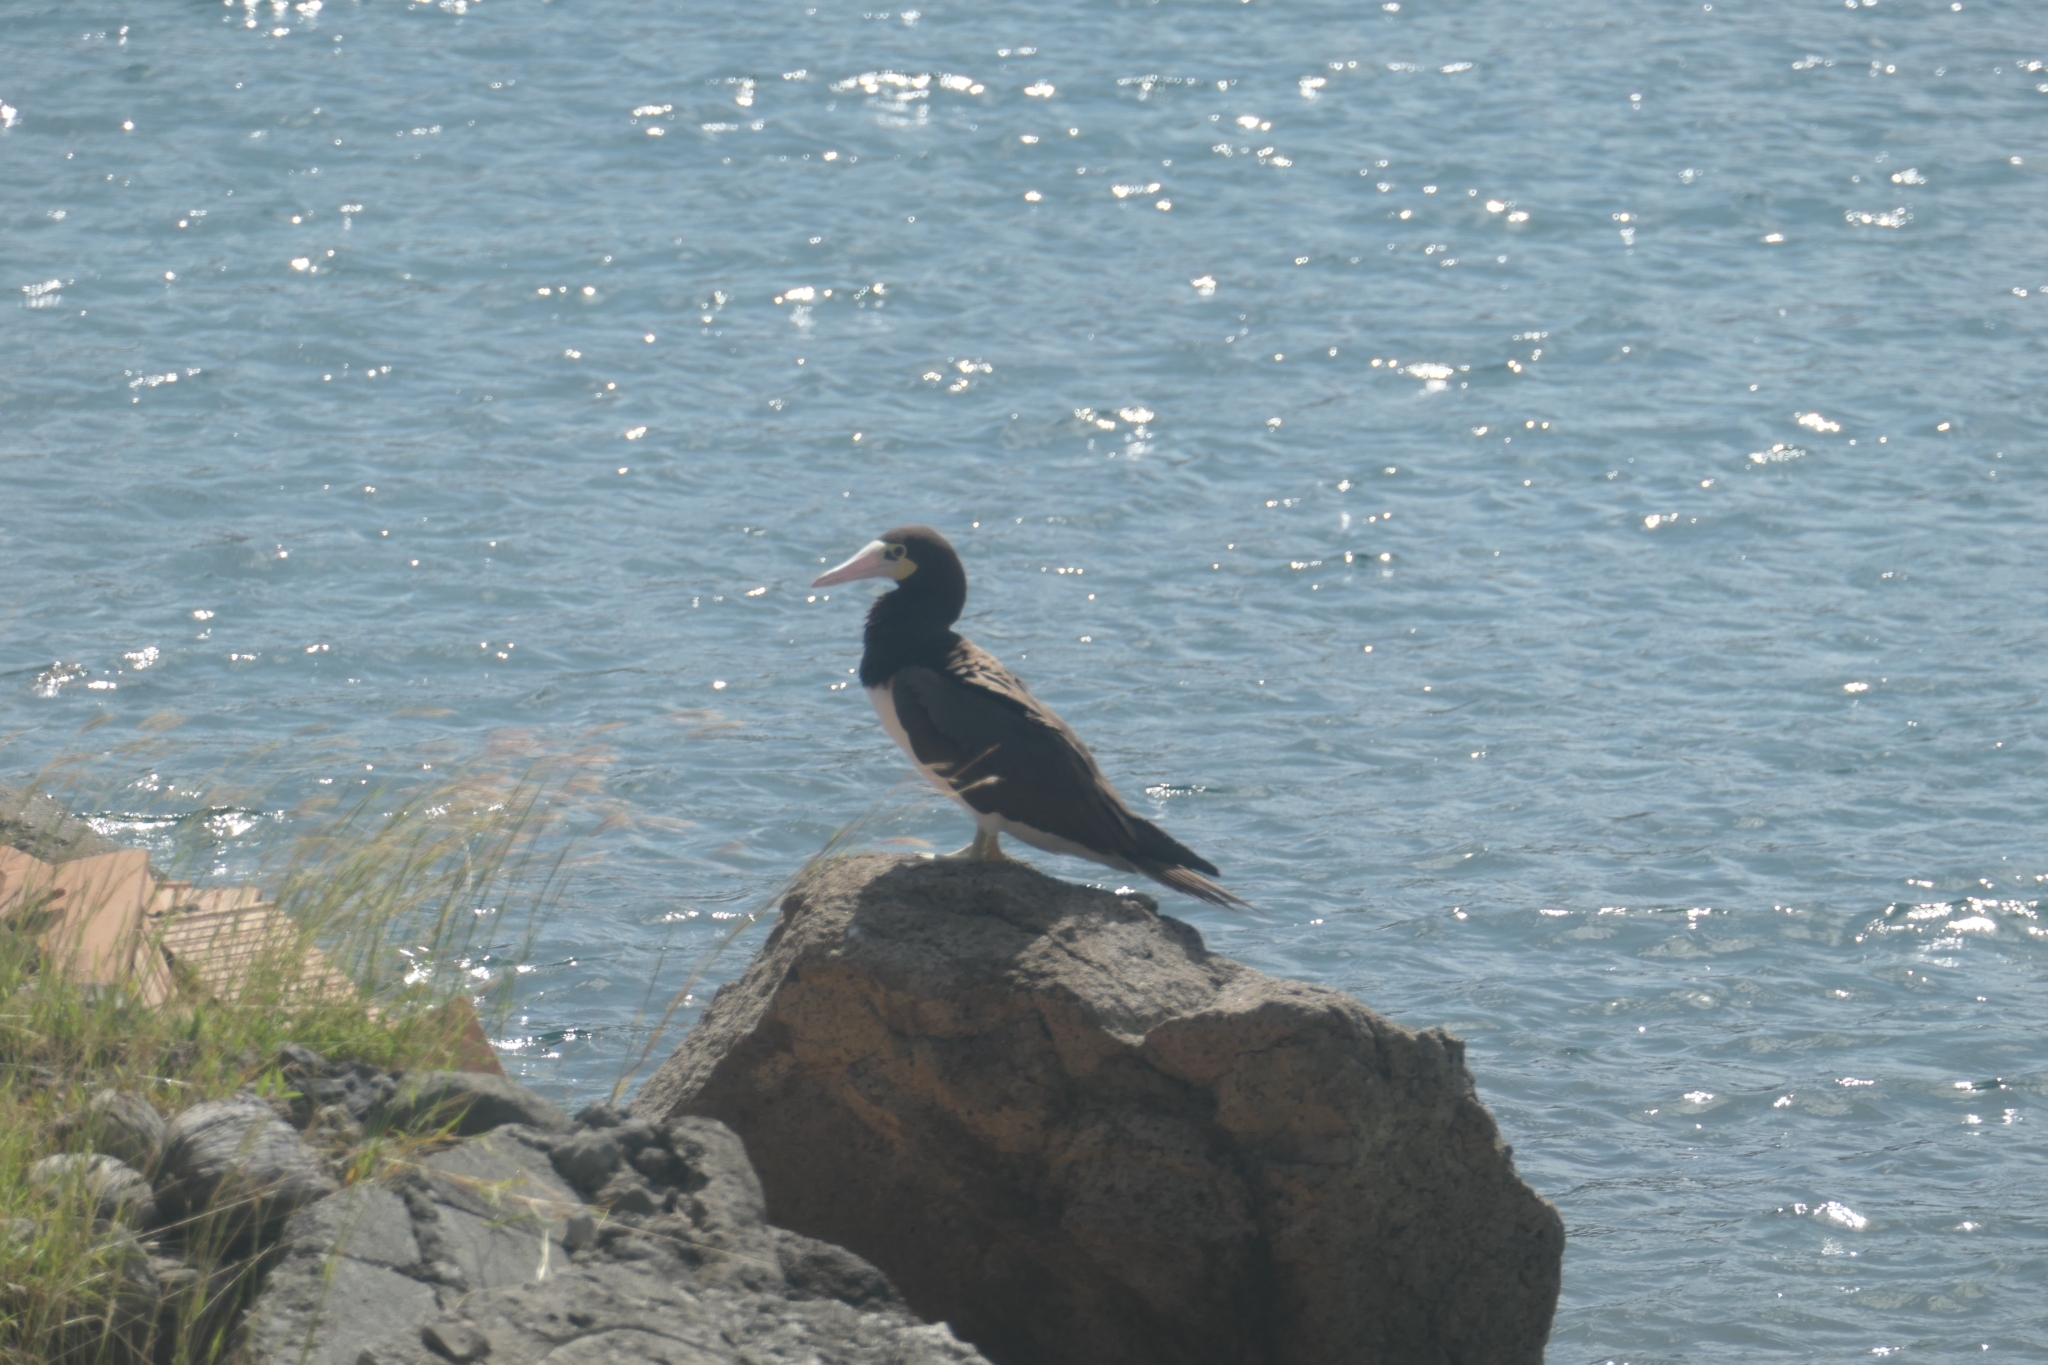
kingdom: Animalia
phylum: Chordata
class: Aves
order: Suliformes
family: Sulidae
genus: Sula
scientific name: Sula leucogaster
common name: Brown booby
